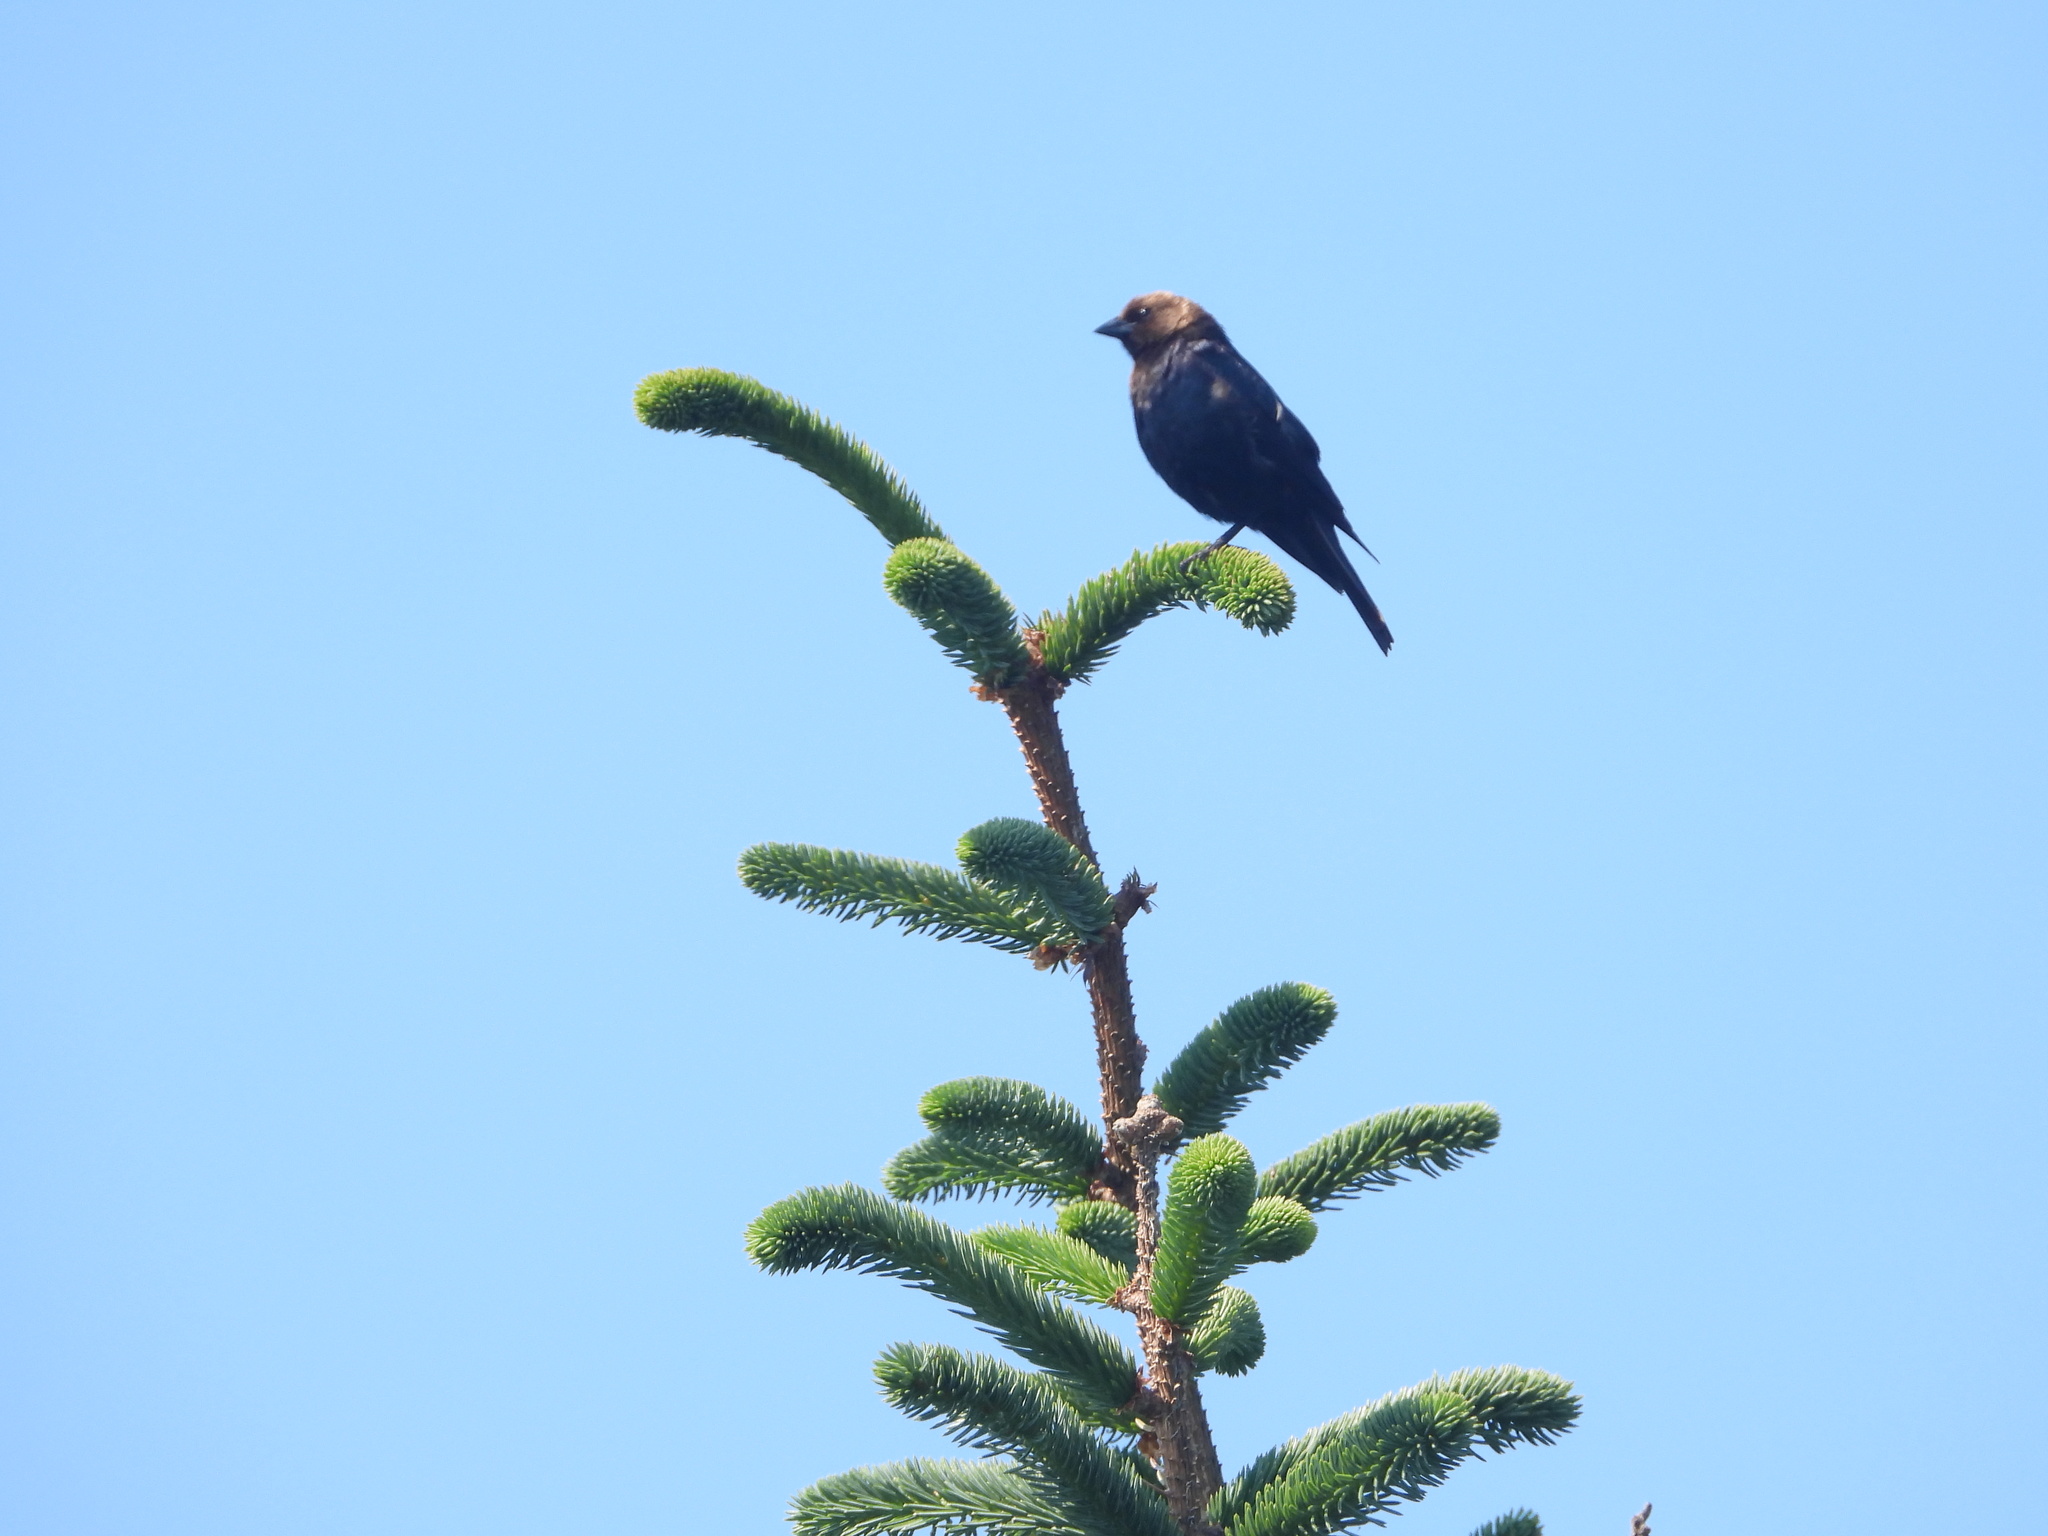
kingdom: Animalia
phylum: Chordata
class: Aves
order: Passeriformes
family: Icteridae
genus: Molothrus
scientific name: Molothrus ater
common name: Brown-headed cowbird
